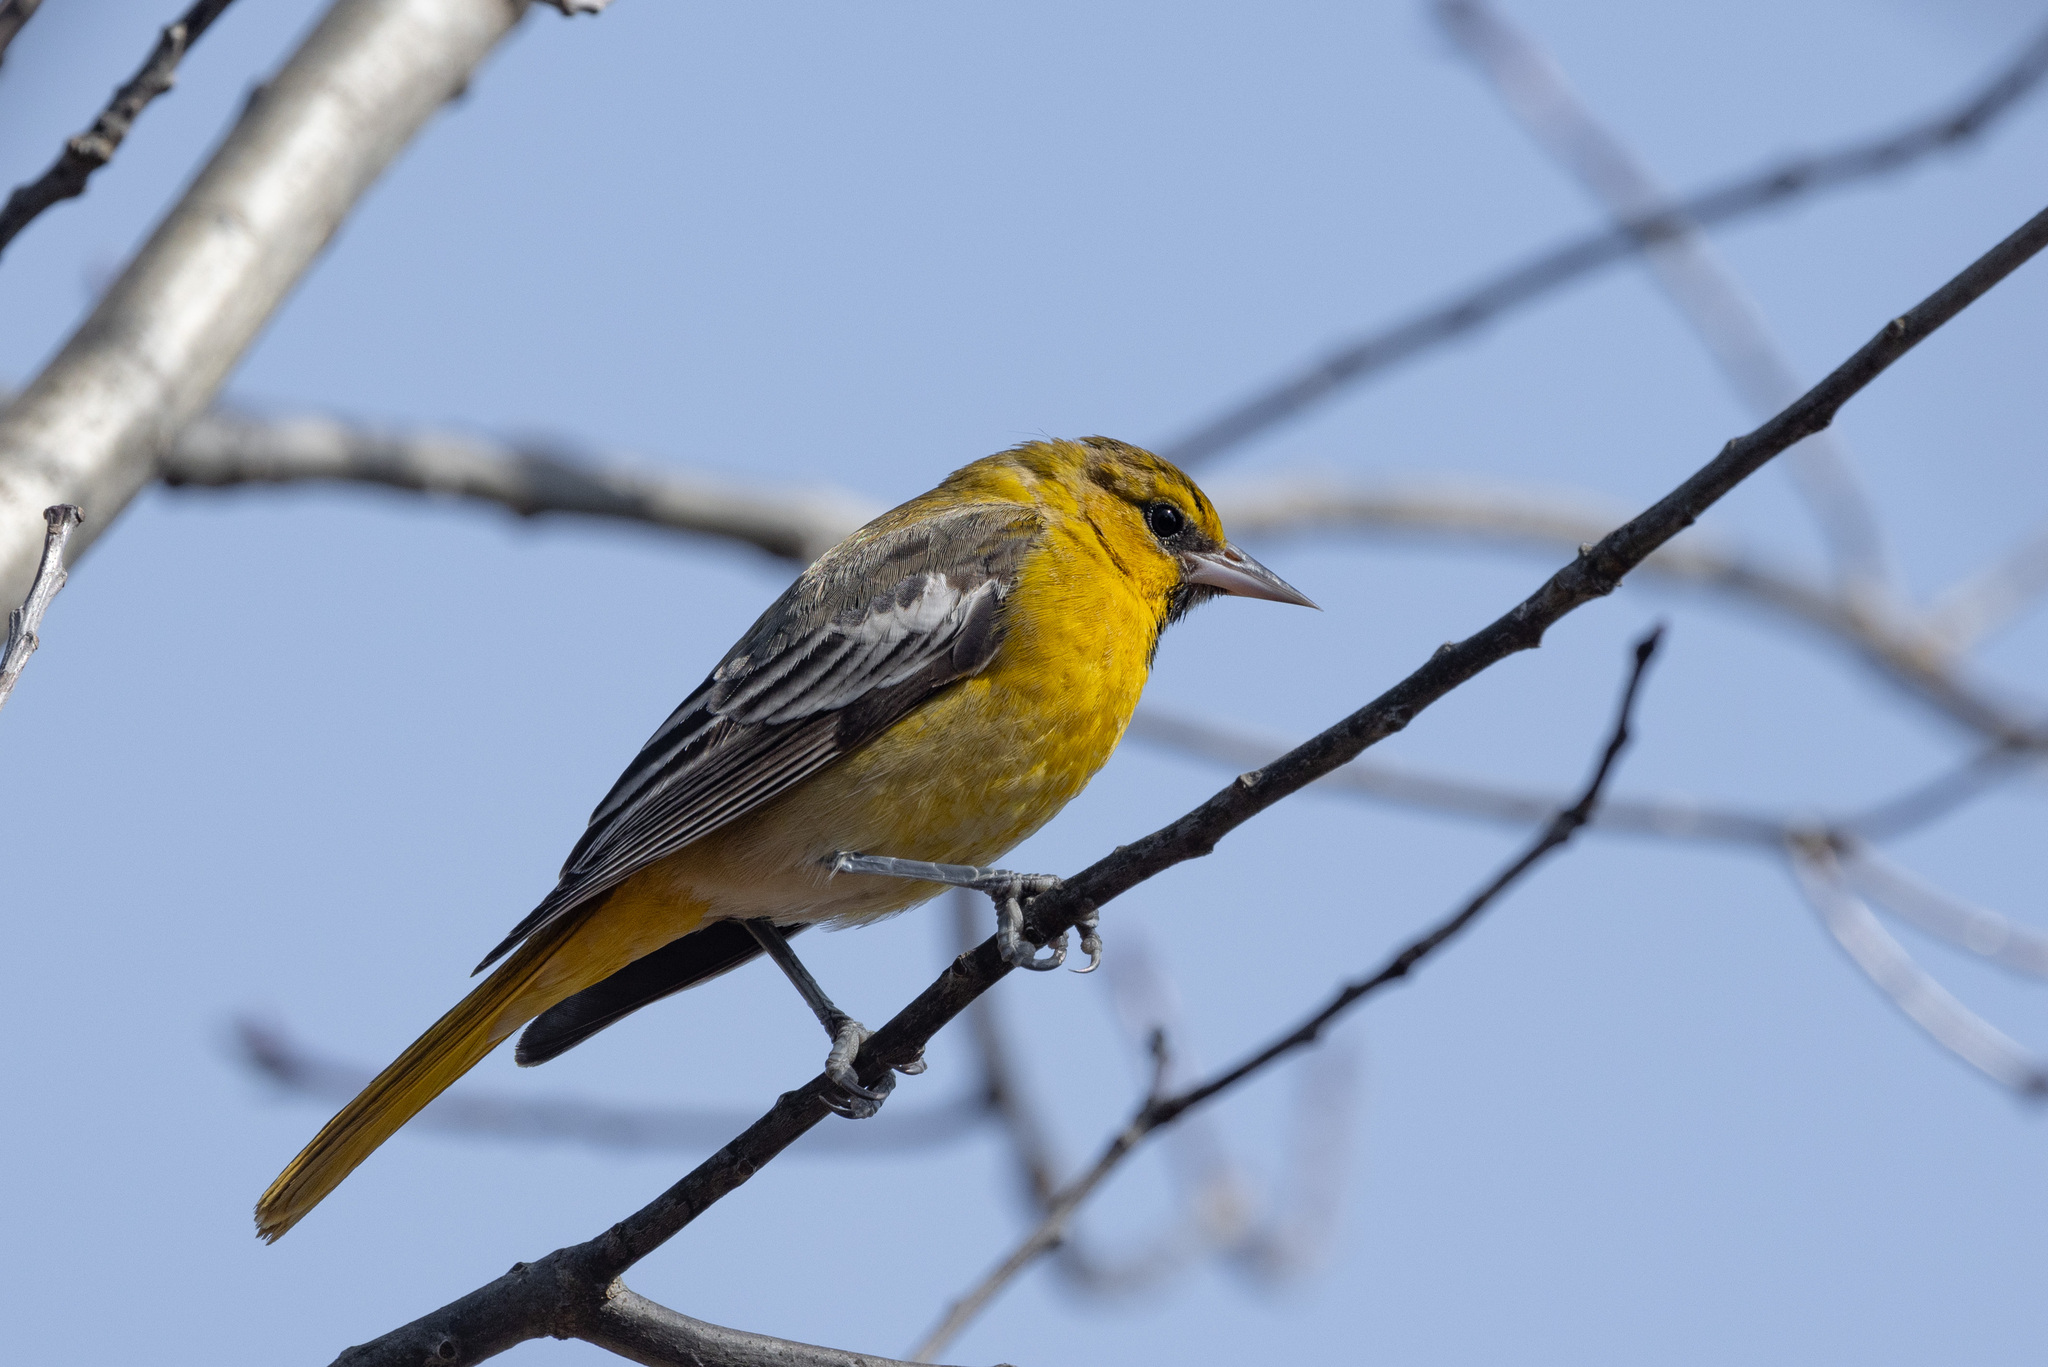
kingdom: Animalia
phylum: Chordata
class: Aves
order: Passeriformes
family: Icteridae
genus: Icterus
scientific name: Icterus bullockii
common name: Bullock's oriole
